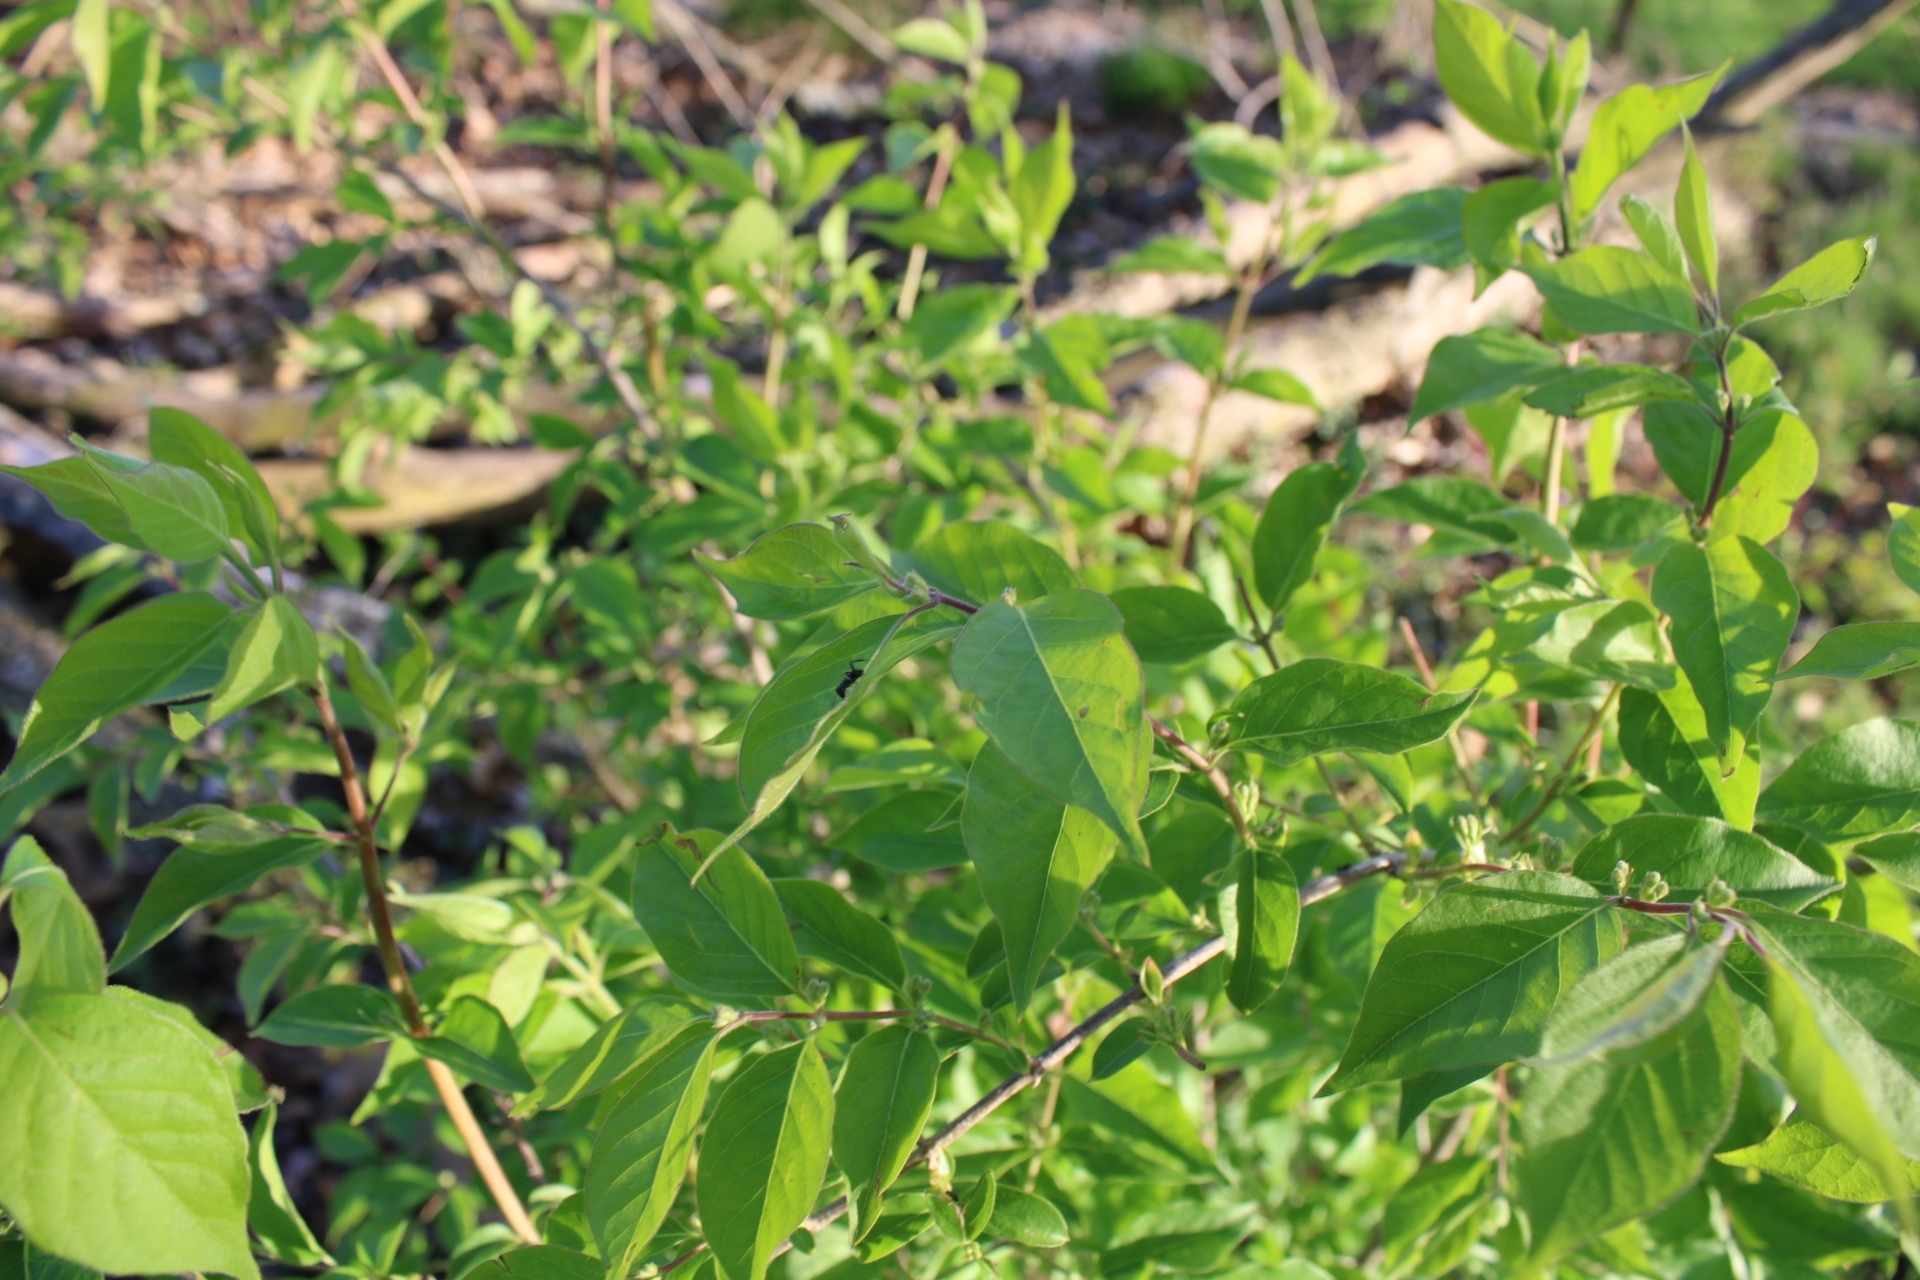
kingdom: Plantae
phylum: Tracheophyta
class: Magnoliopsida
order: Dipsacales
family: Caprifoliaceae
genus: Lonicera
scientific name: Lonicera maackii
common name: Amur honeysuckle
